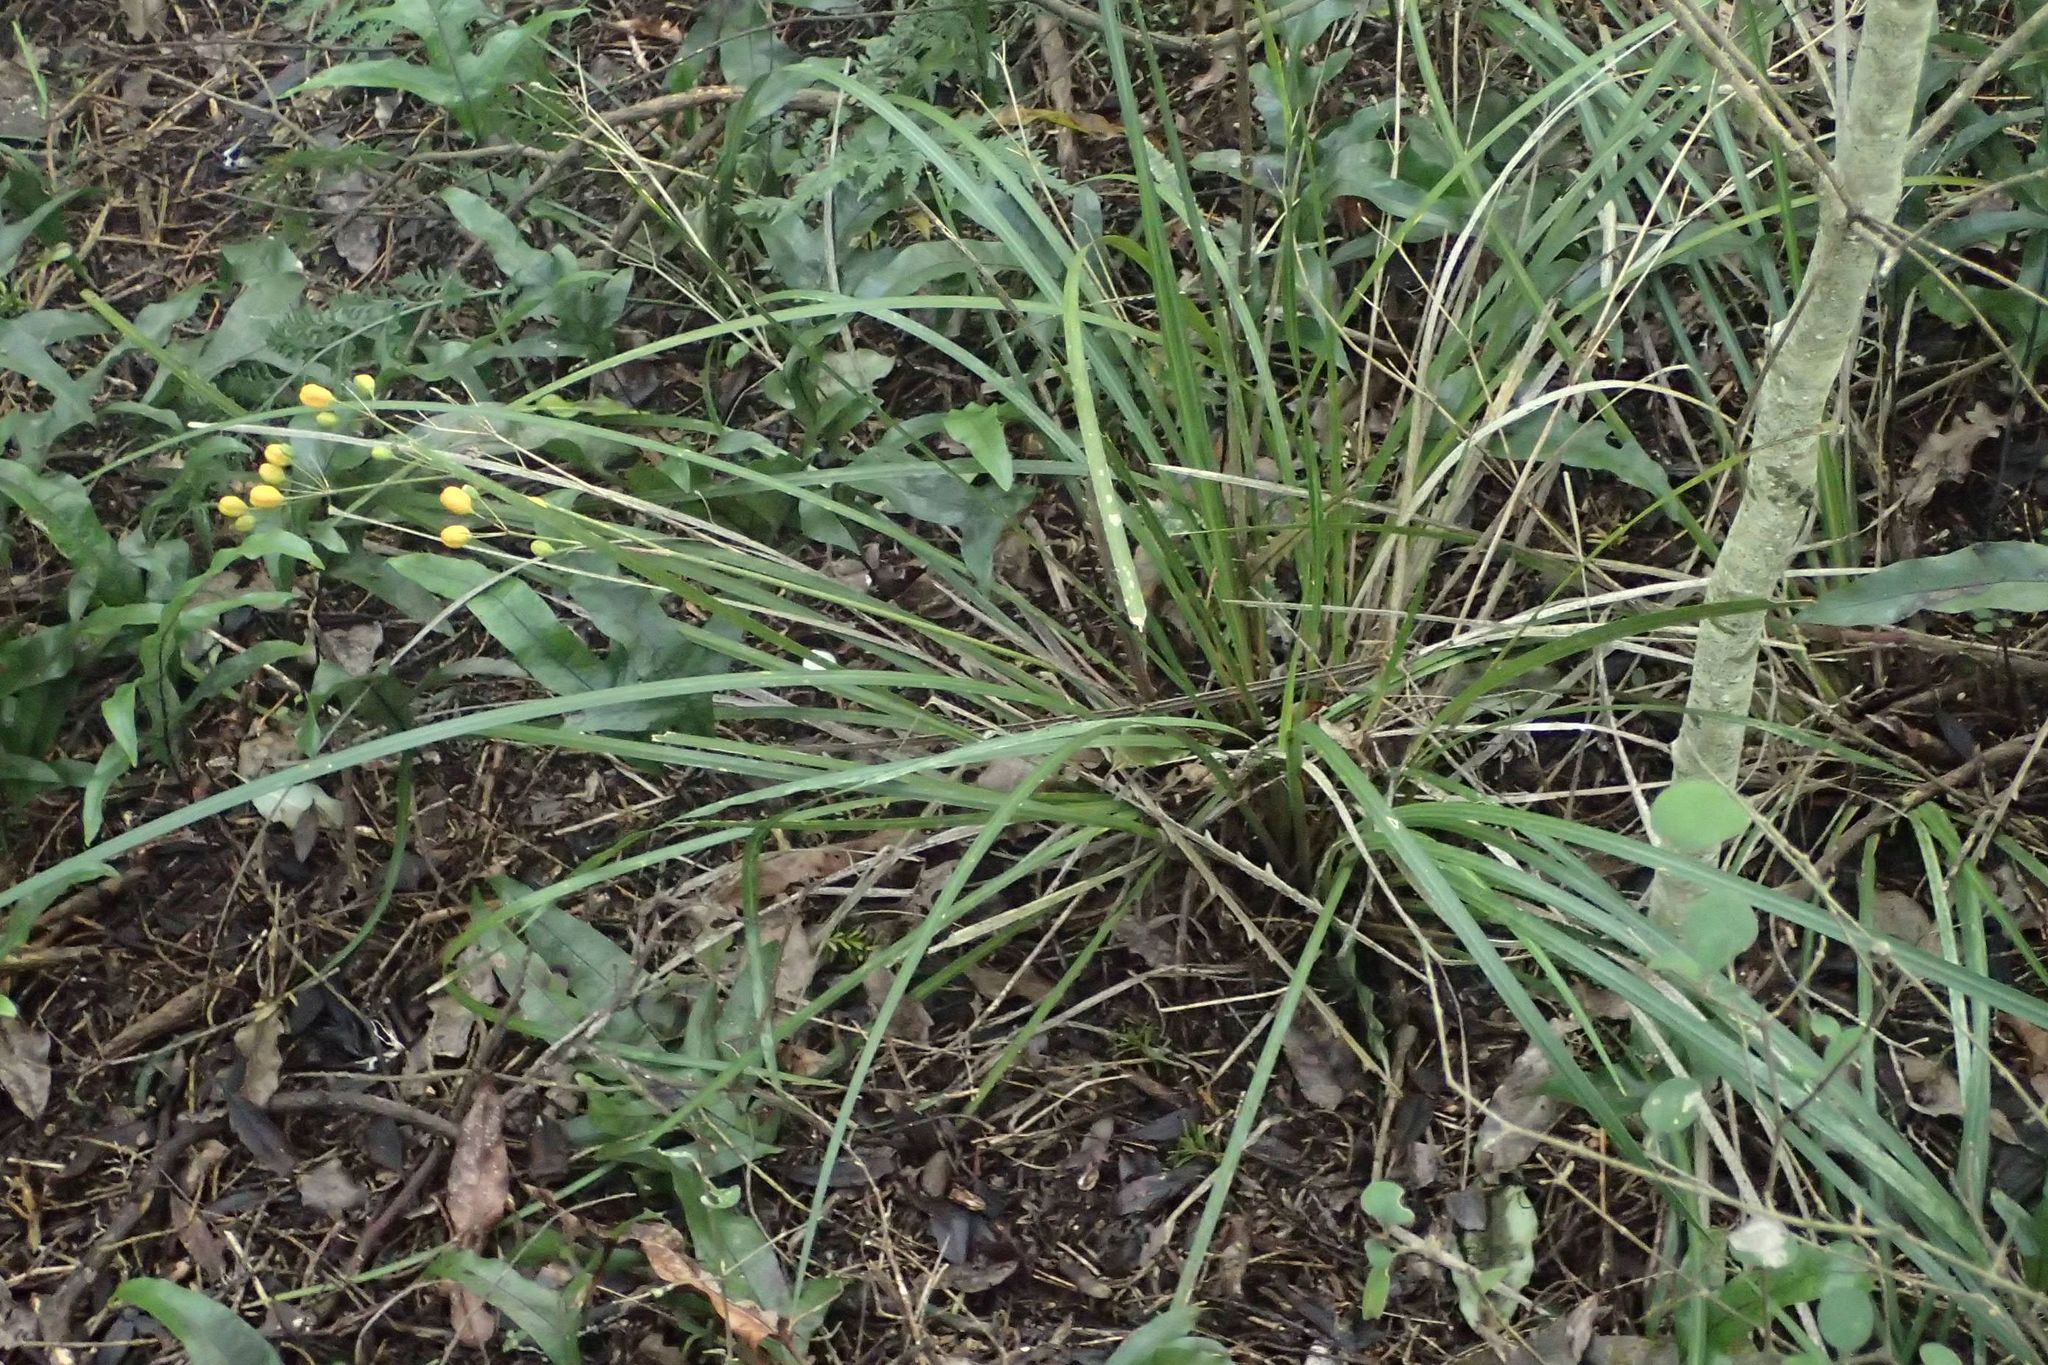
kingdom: Plantae
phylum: Tracheophyta
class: Liliopsida
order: Asparagales
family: Iridaceae
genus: Libertia
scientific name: Libertia ixioides
